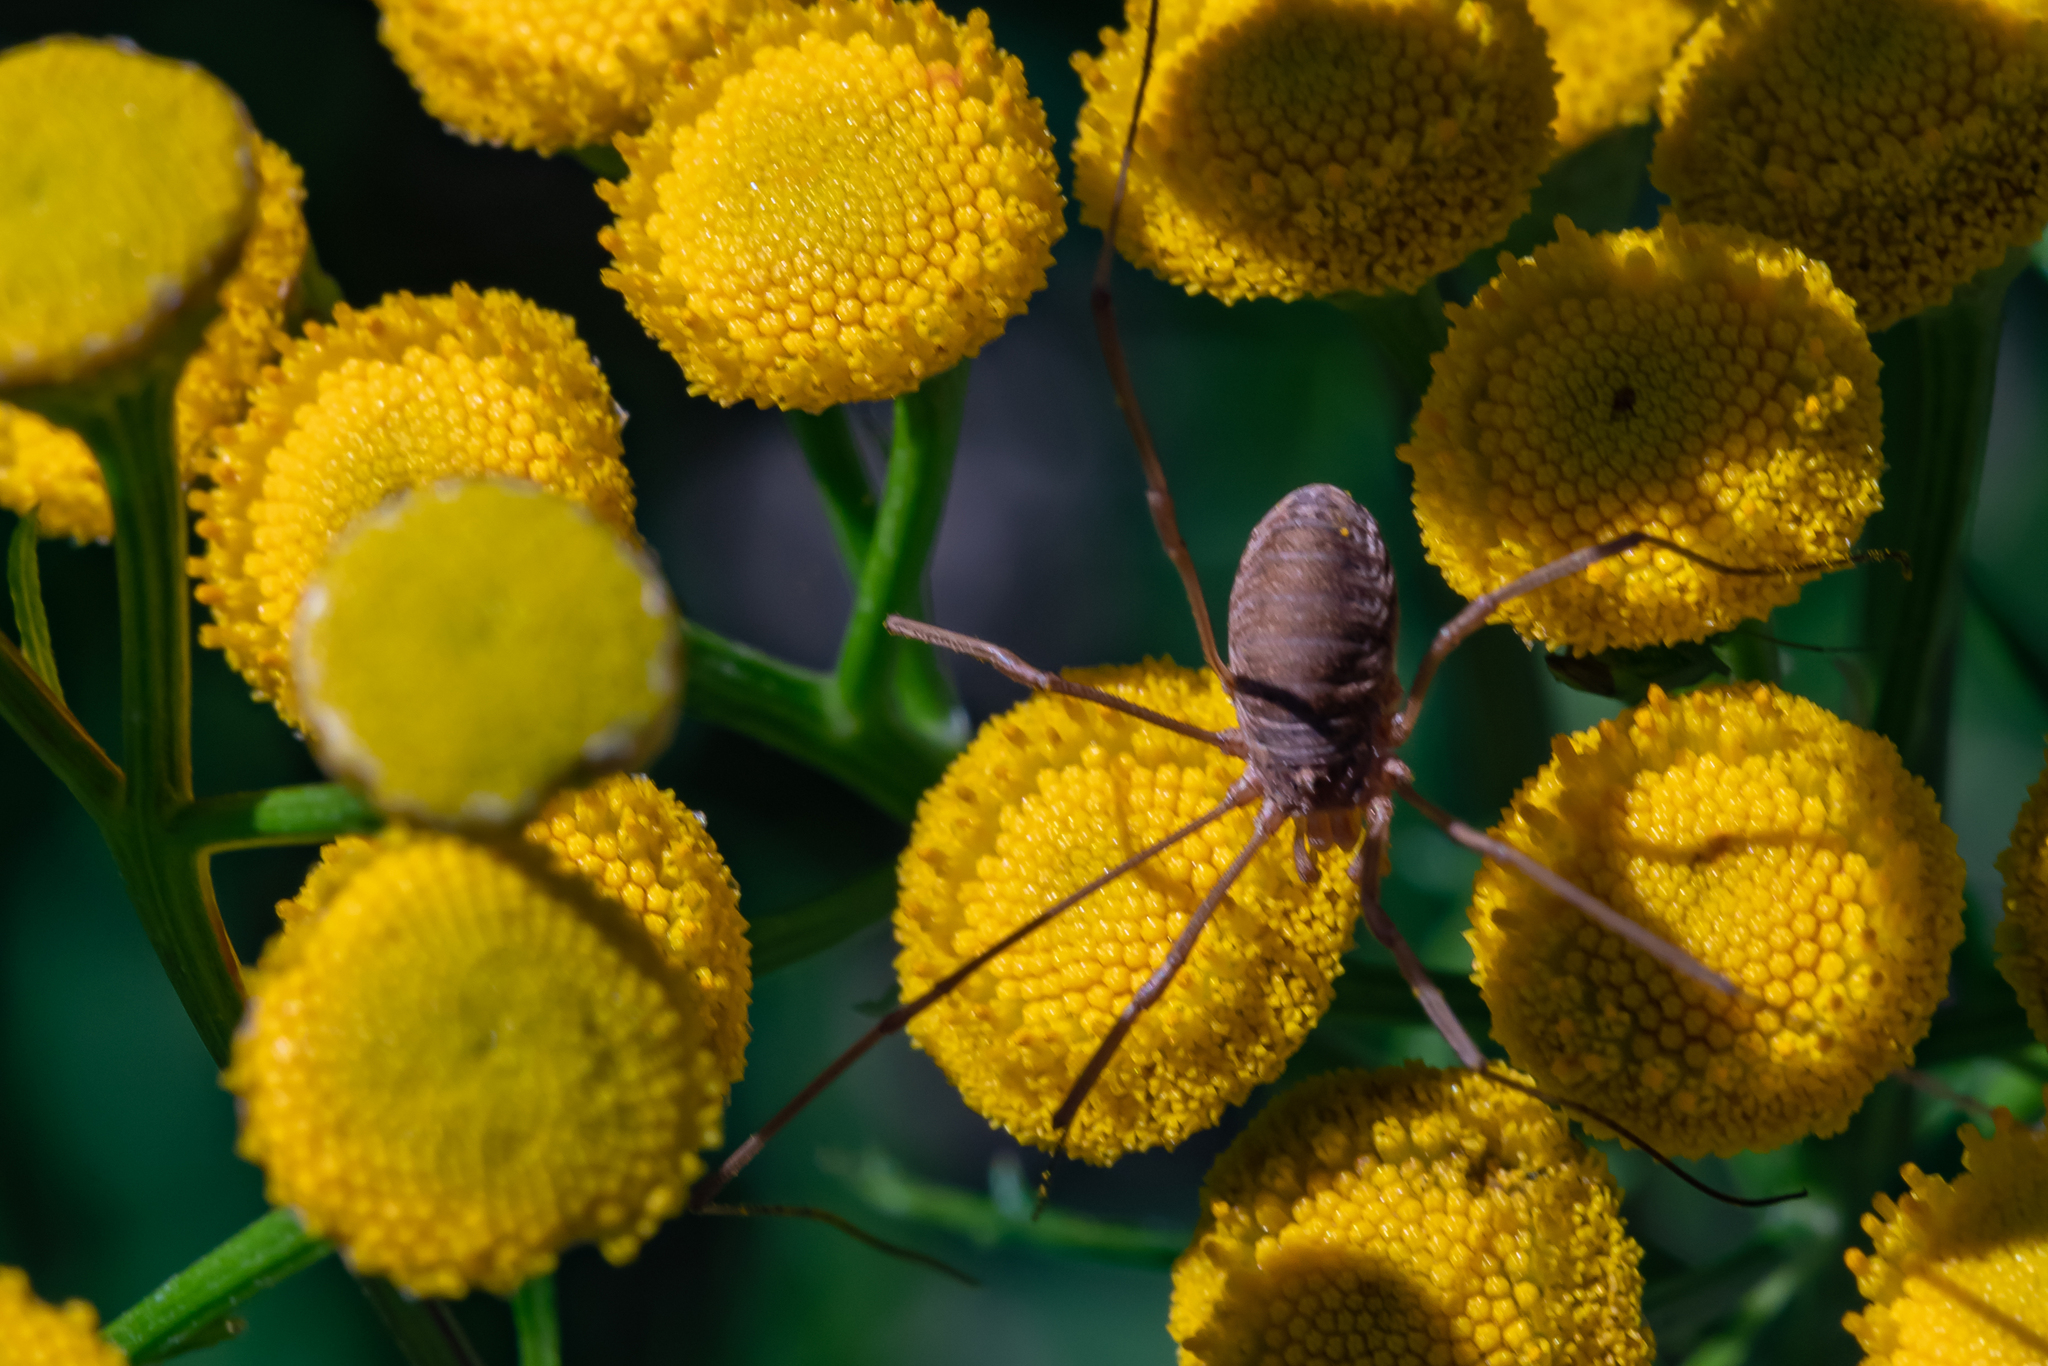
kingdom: Animalia
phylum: Arthropoda
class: Arachnida
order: Opiliones
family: Phalangiidae
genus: Phalangium
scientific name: Phalangium opilio
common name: Daddy longleg
